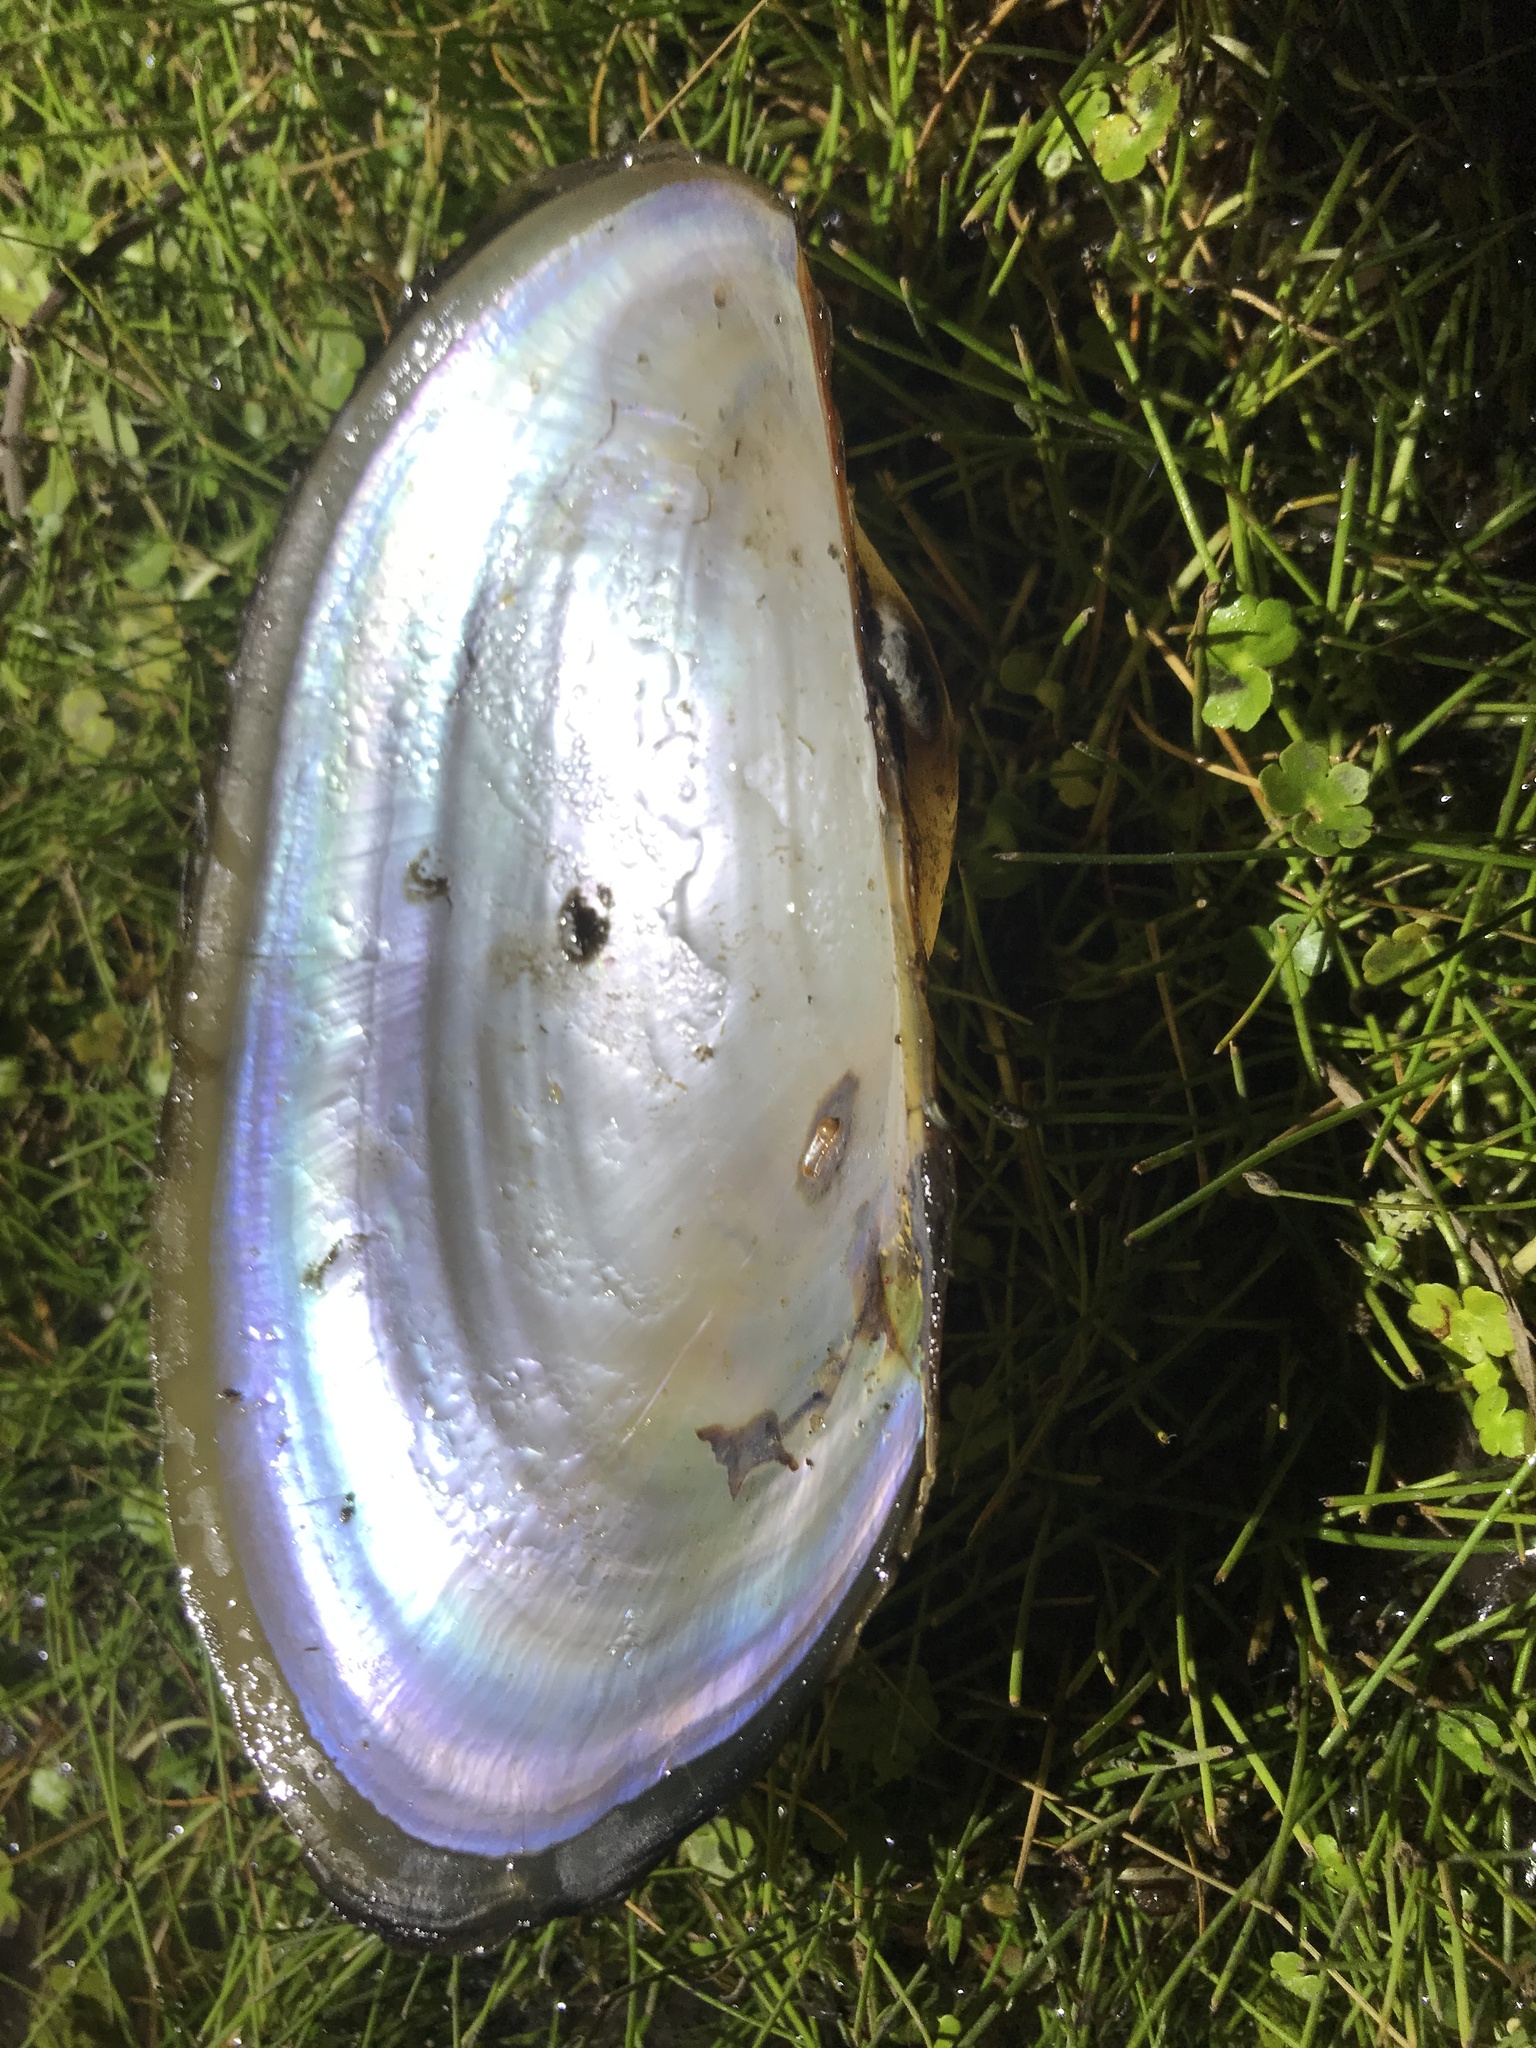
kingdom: Animalia
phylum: Mollusca
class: Bivalvia
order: Unionida
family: Mycetopodidae
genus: Anodontites
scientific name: Anodontites trapesialis
